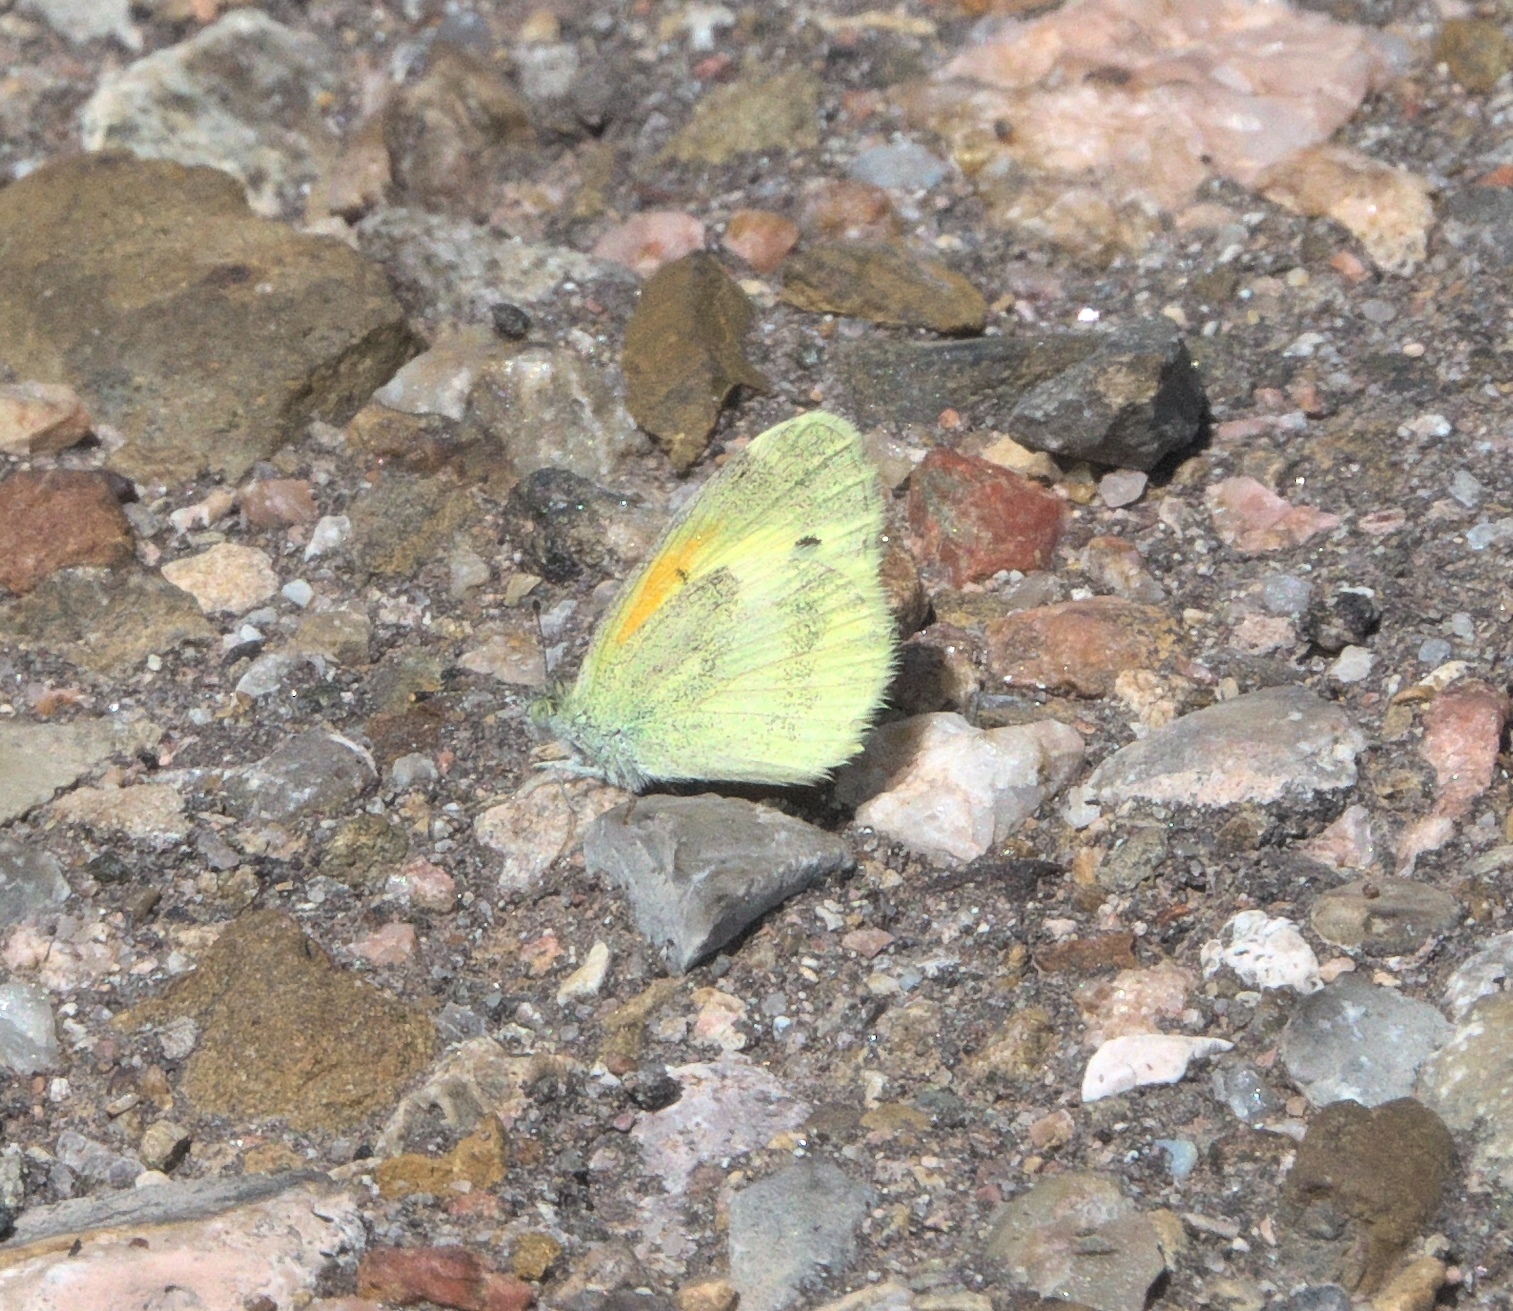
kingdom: Animalia
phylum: Arthropoda
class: Insecta
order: Lepidoptera
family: Pieridae
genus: Nathalis
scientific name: Nathalis iole
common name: Dainty sulphur
